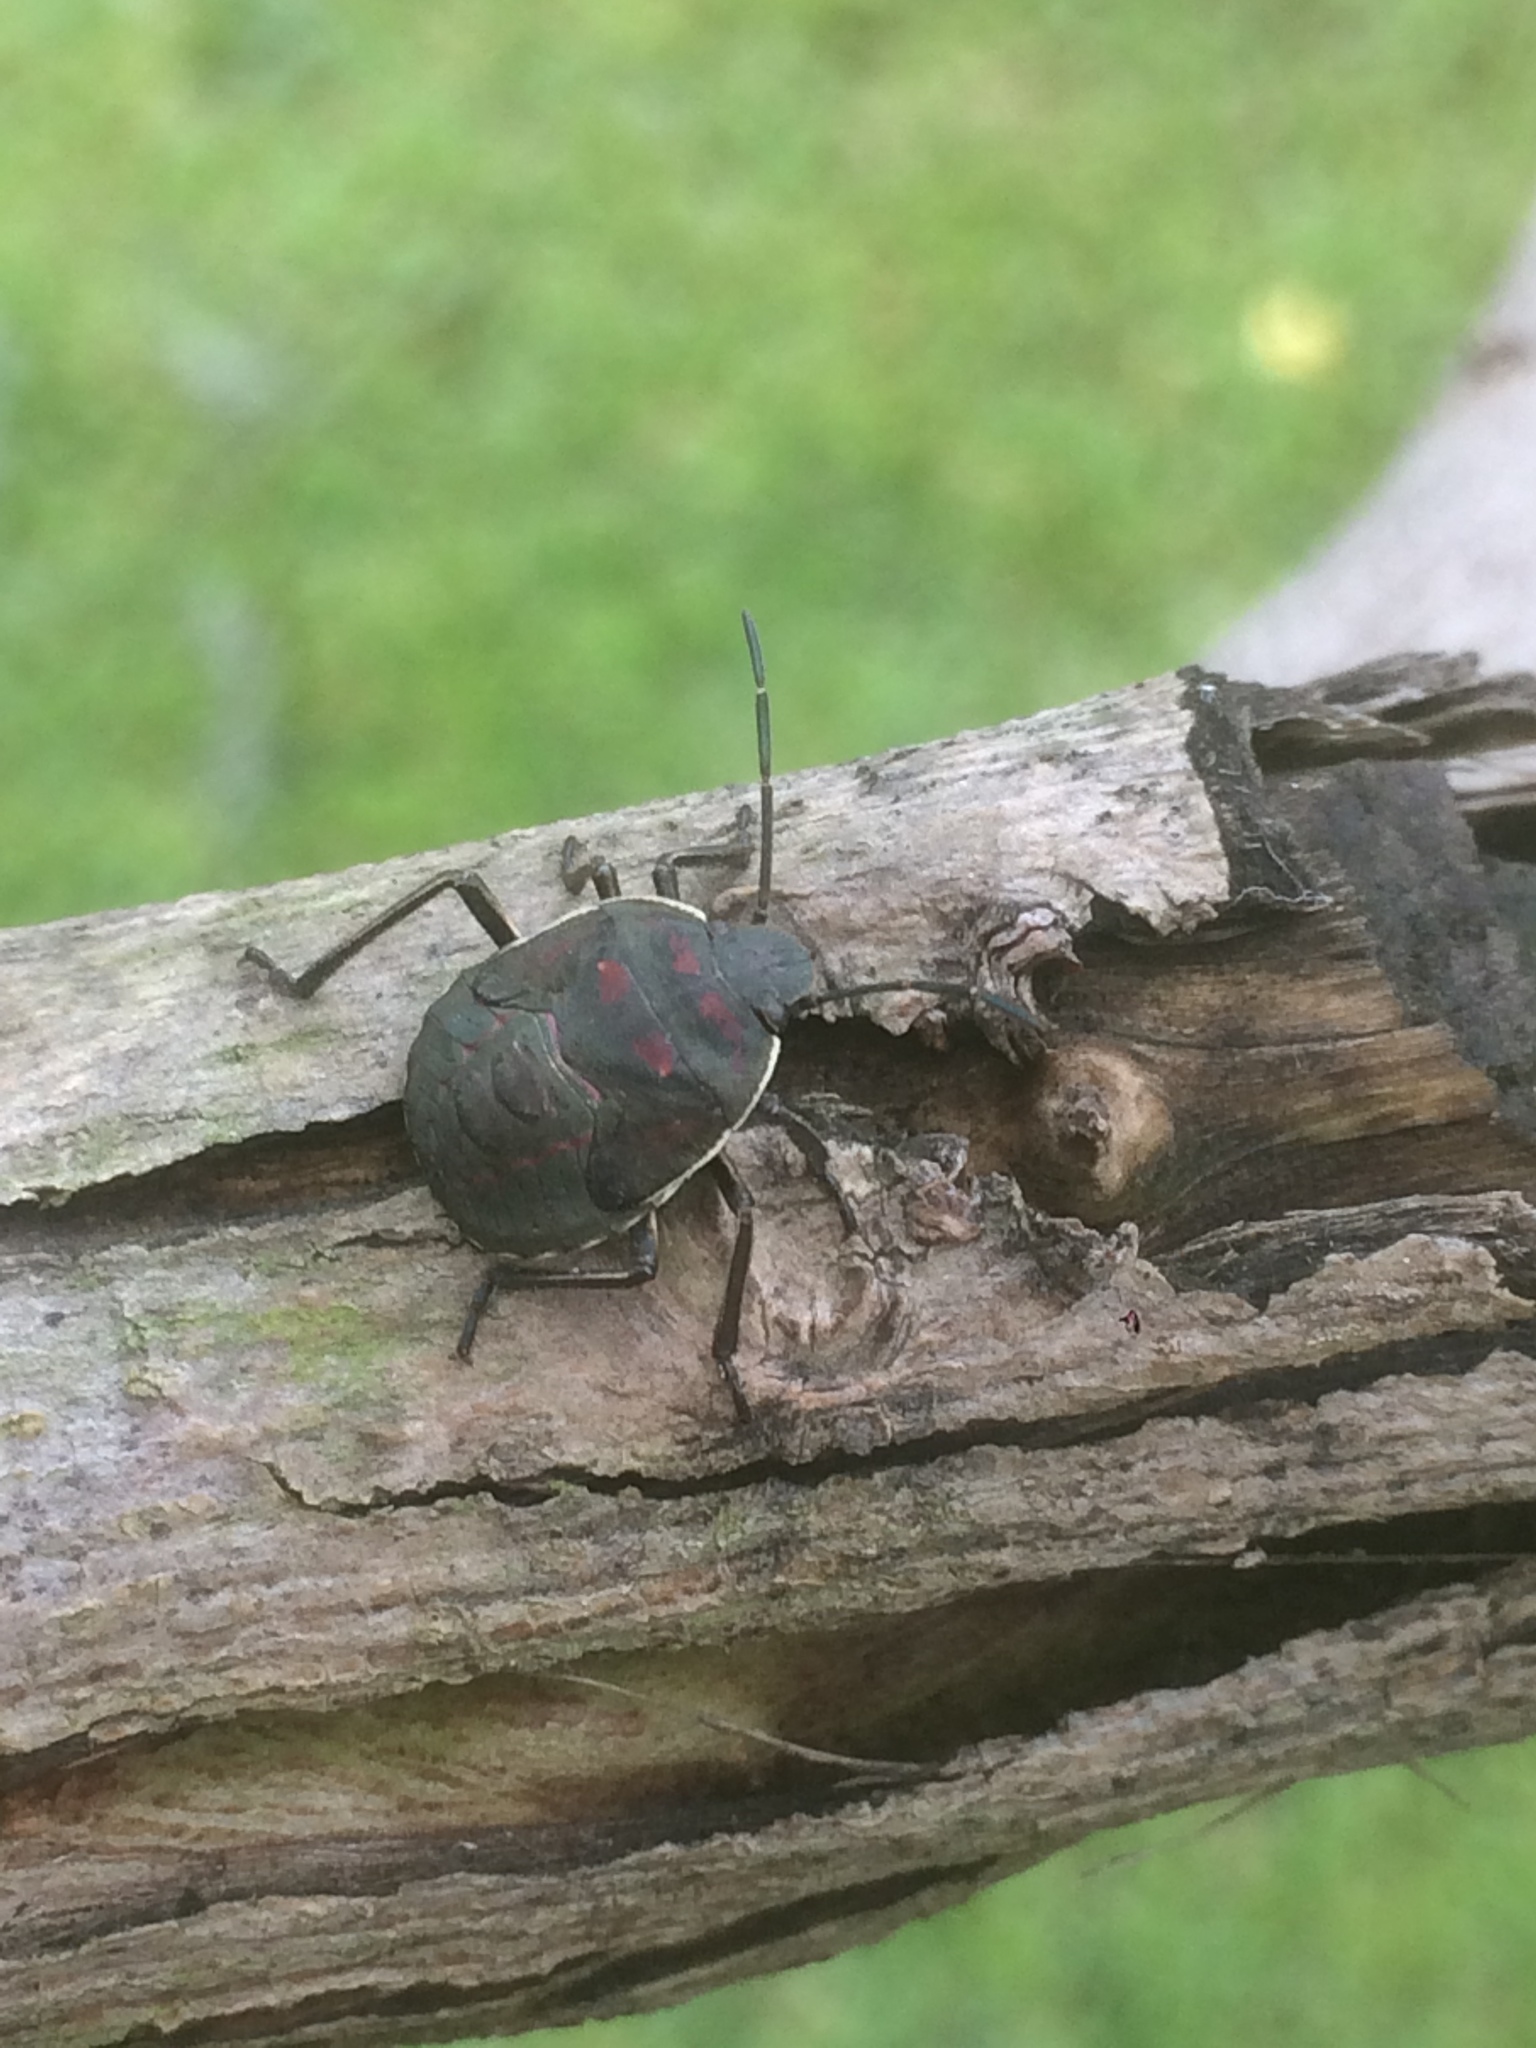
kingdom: Animalia
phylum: Arthropoda
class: Insecta
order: Hemiptera
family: Pentatomidae
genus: Pellaea
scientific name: Pellaea stictica
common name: Stink bug
